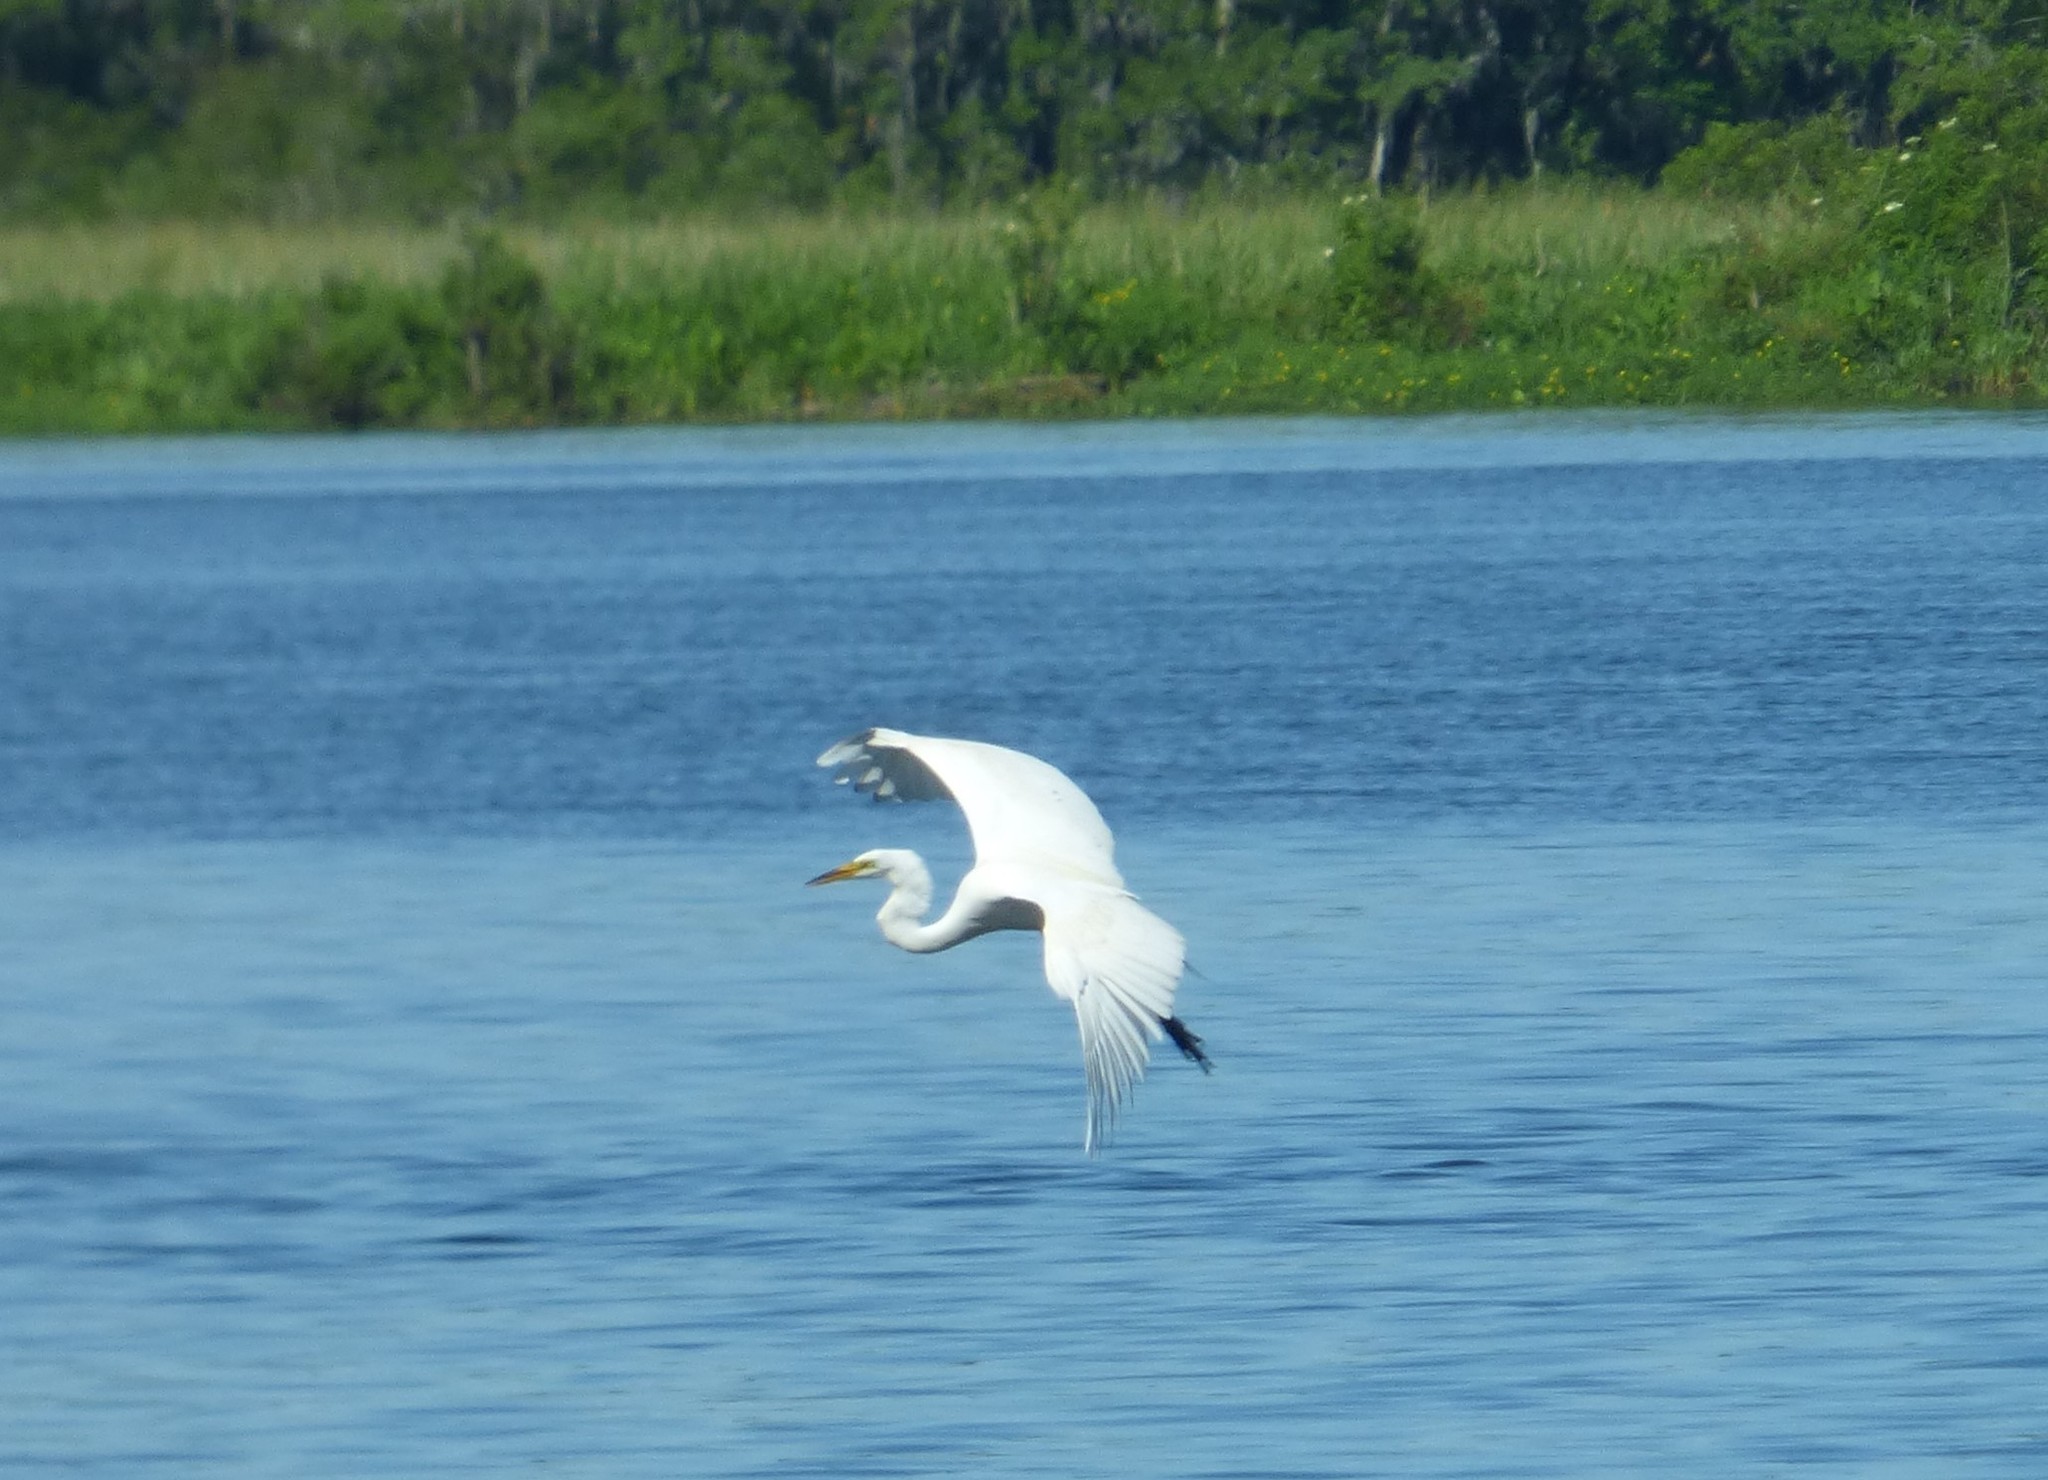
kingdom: Animalia
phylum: Chordata
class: Aves
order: Pelecaniformes
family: Ardeidae
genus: Ardea
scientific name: Ardea alba
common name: Great egret
